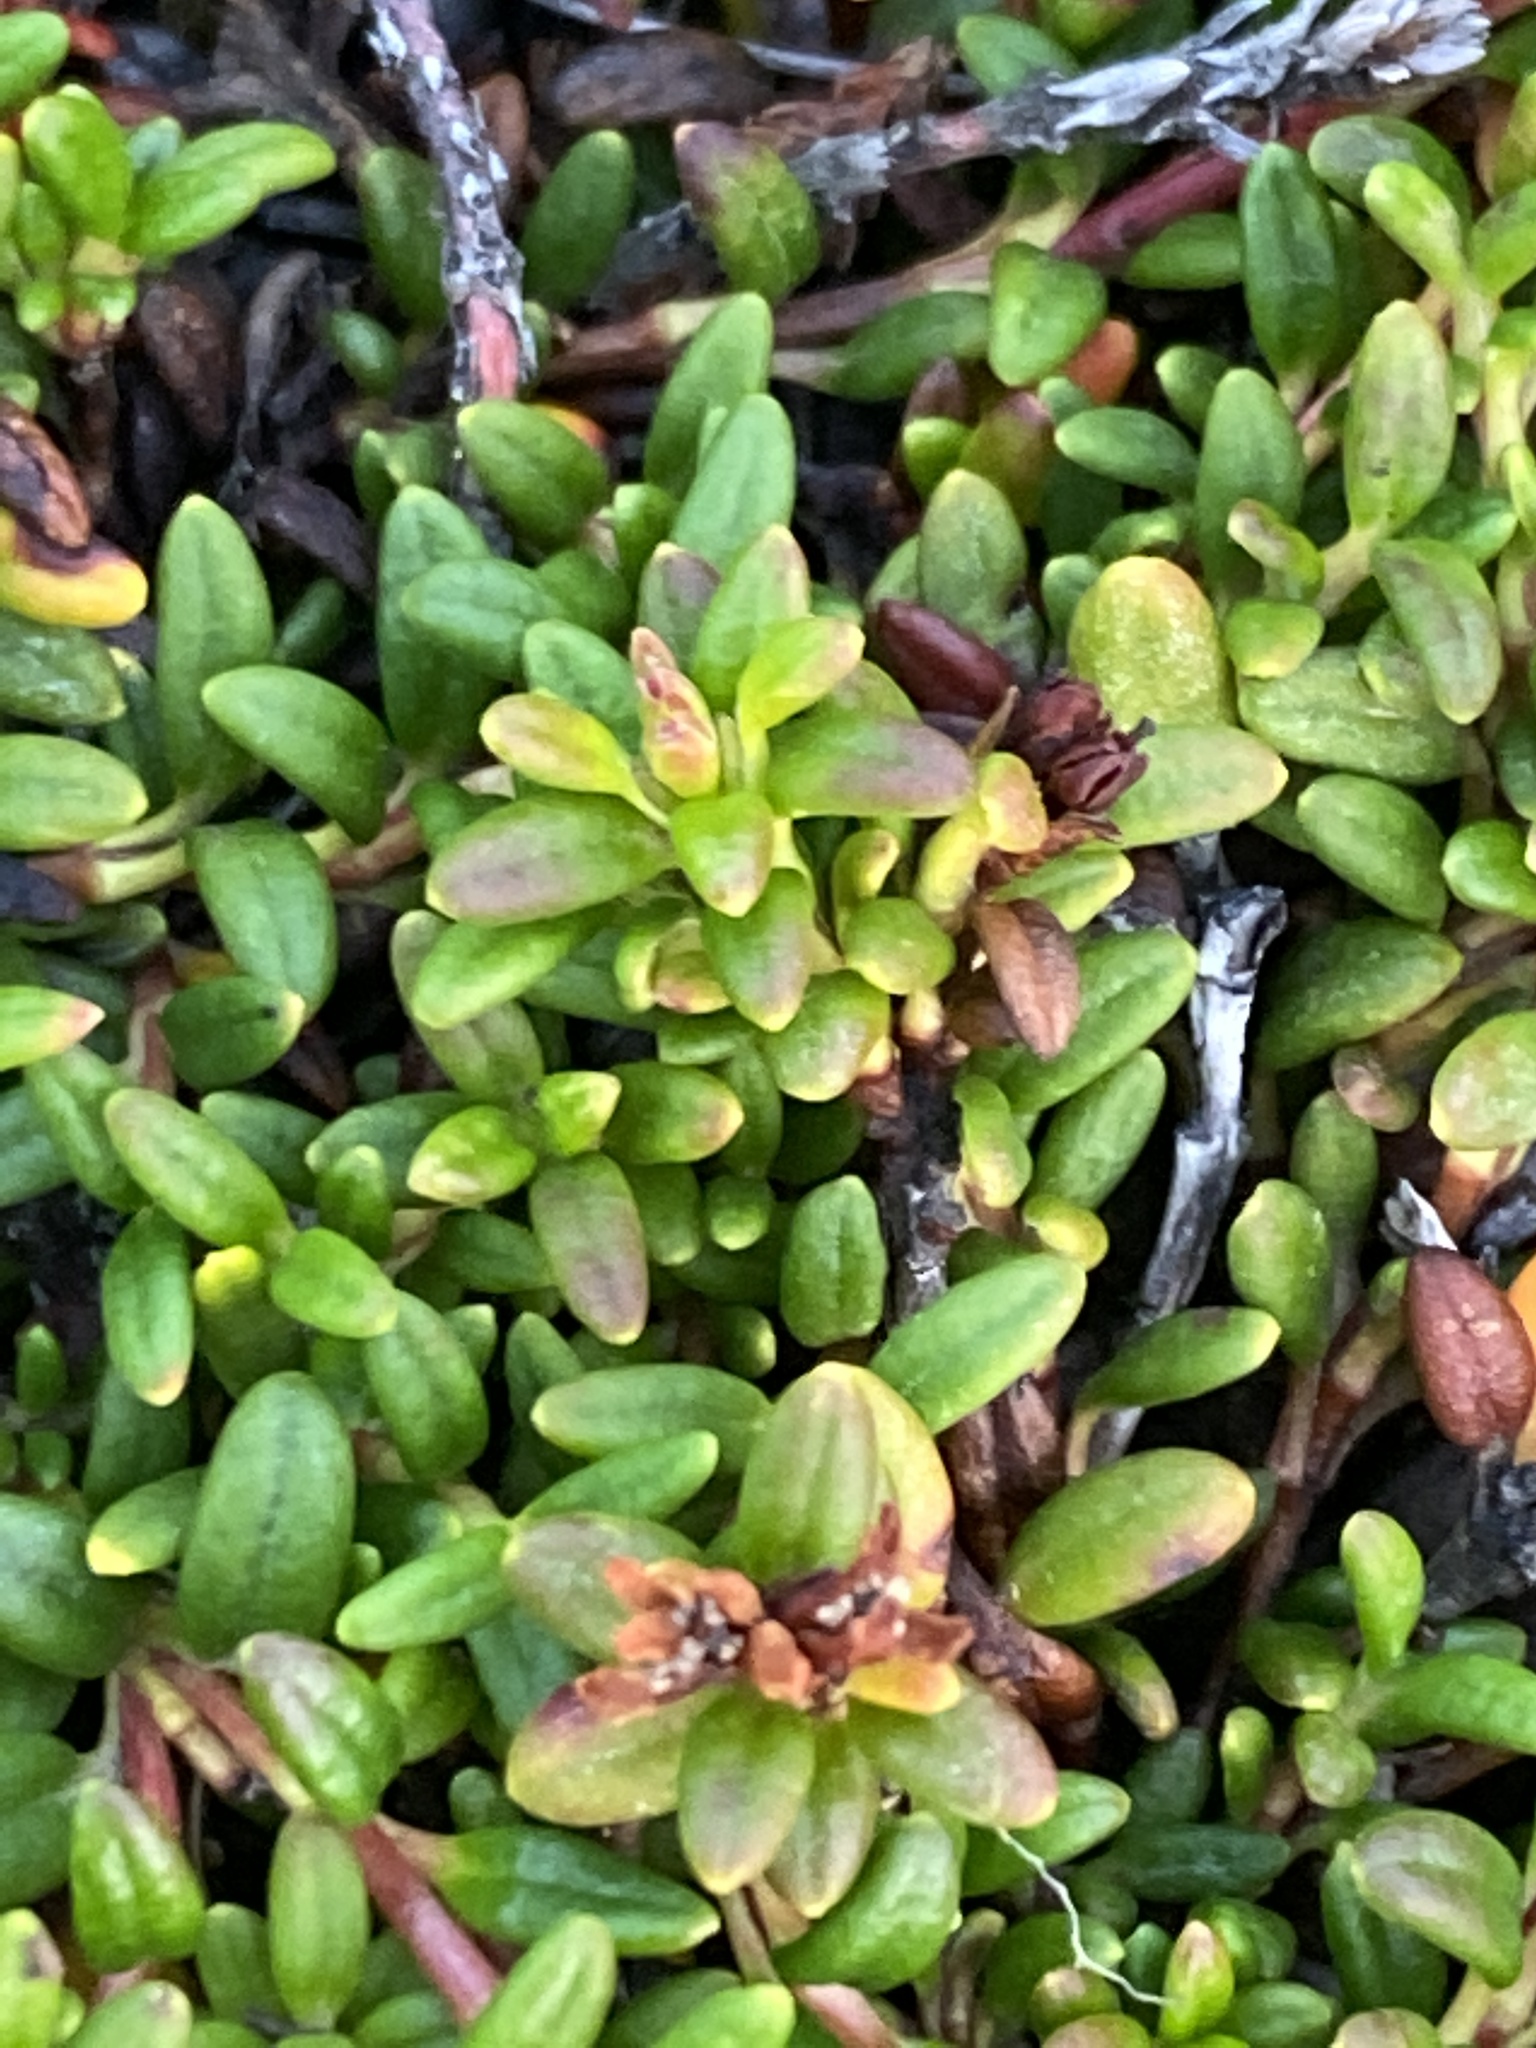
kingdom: Plantae
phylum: Tracheophyta
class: Magnoliopsida
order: Ericales
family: Ericaceae
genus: Kalmia
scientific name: Kalmia procumbens
